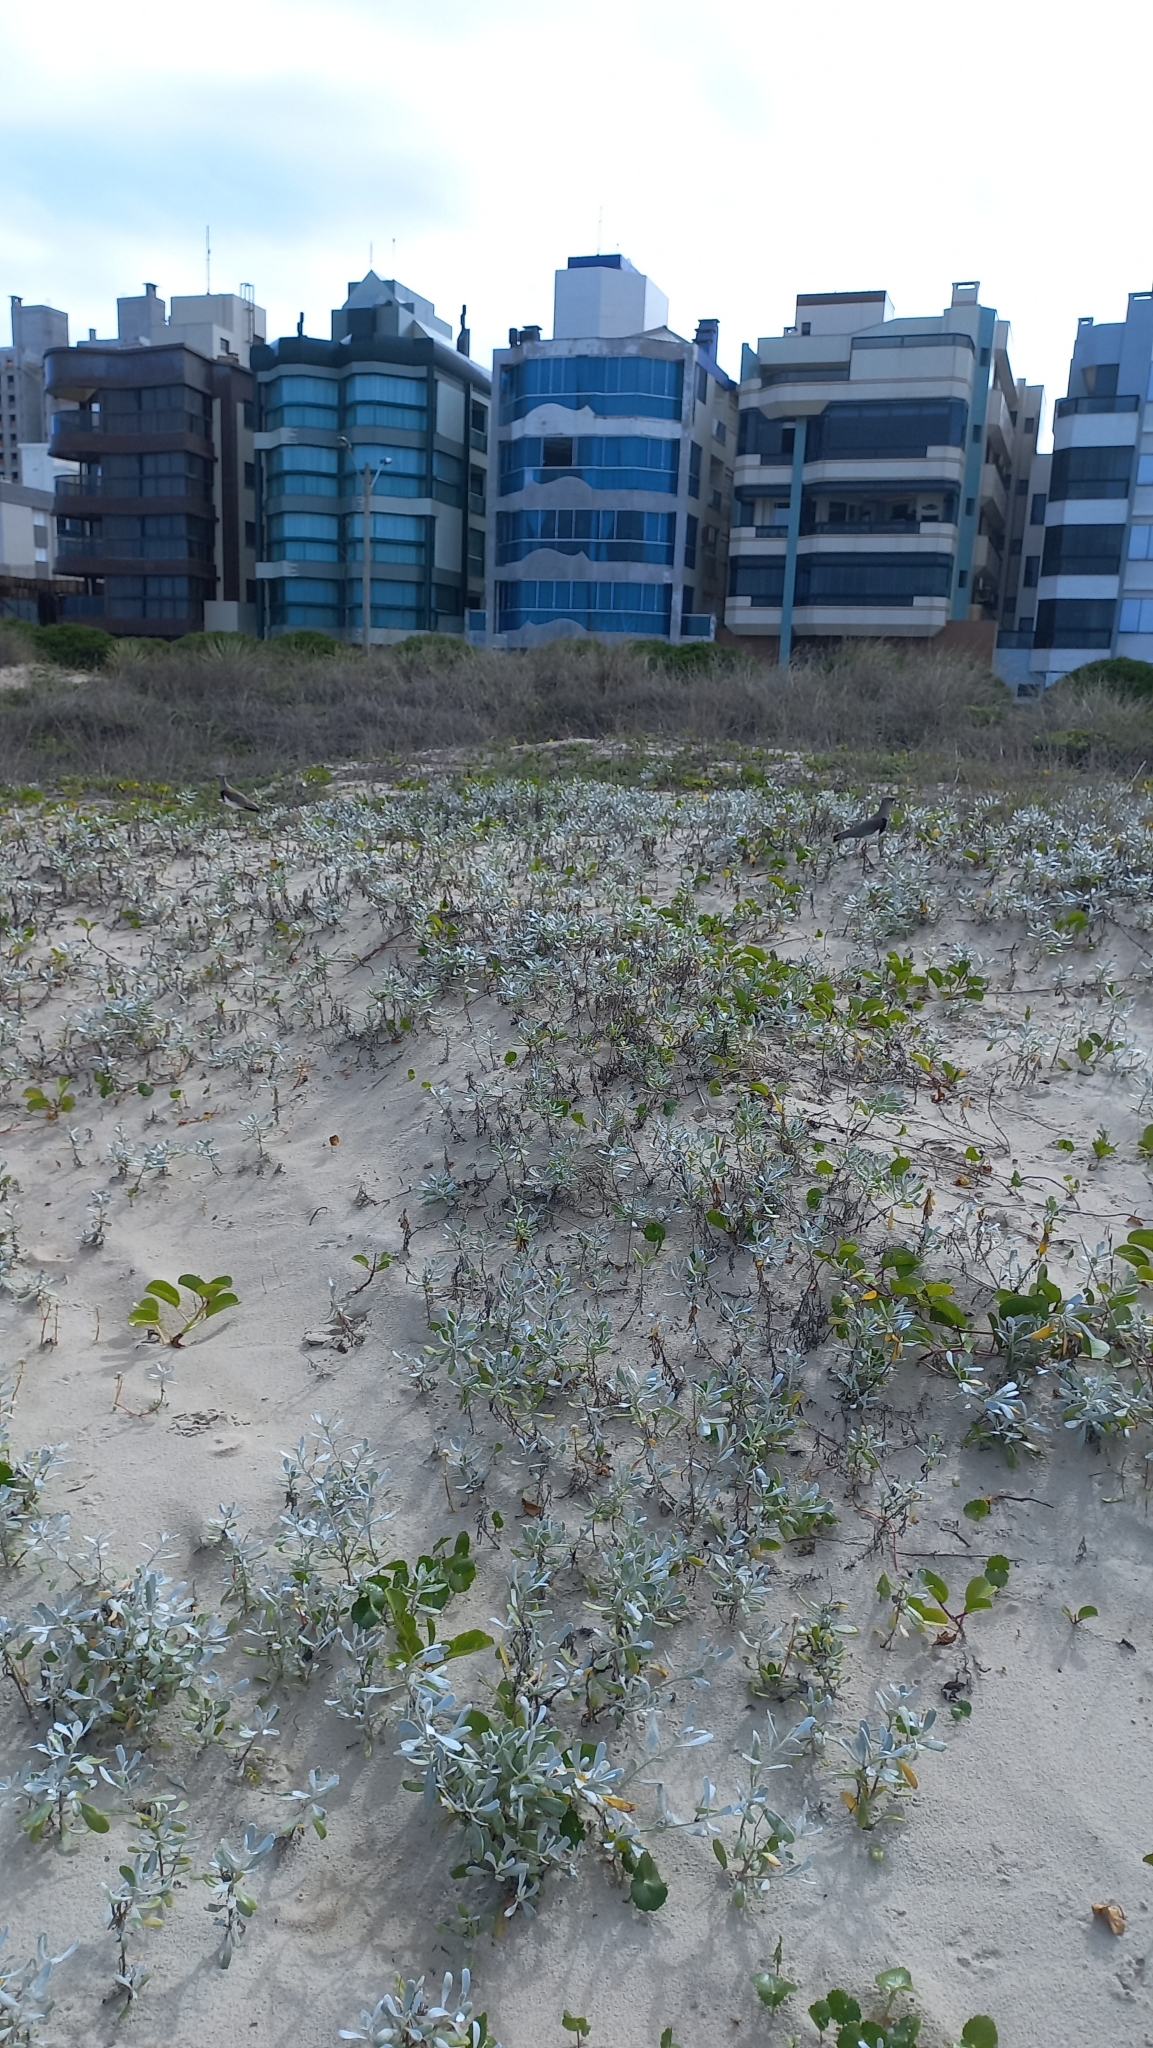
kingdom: Animalia
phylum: Chordata
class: Aves
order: Charadriiformes
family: Charadriidae
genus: Vanellus
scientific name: Vanellus chilensis
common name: Southern lapwing
